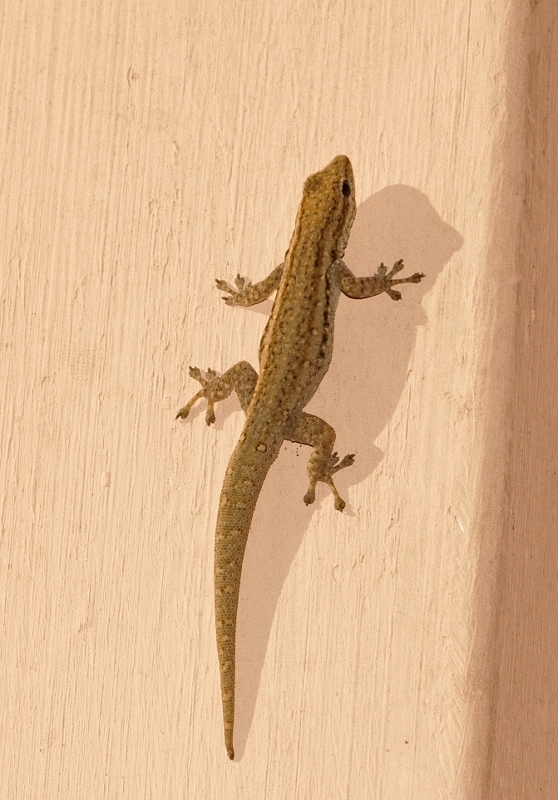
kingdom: Animalia
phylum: Chordata
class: Squamata
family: Gekkonidae
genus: Lygodactylus
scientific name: Lygodactylus capensis
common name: Cape dwarf gecko
